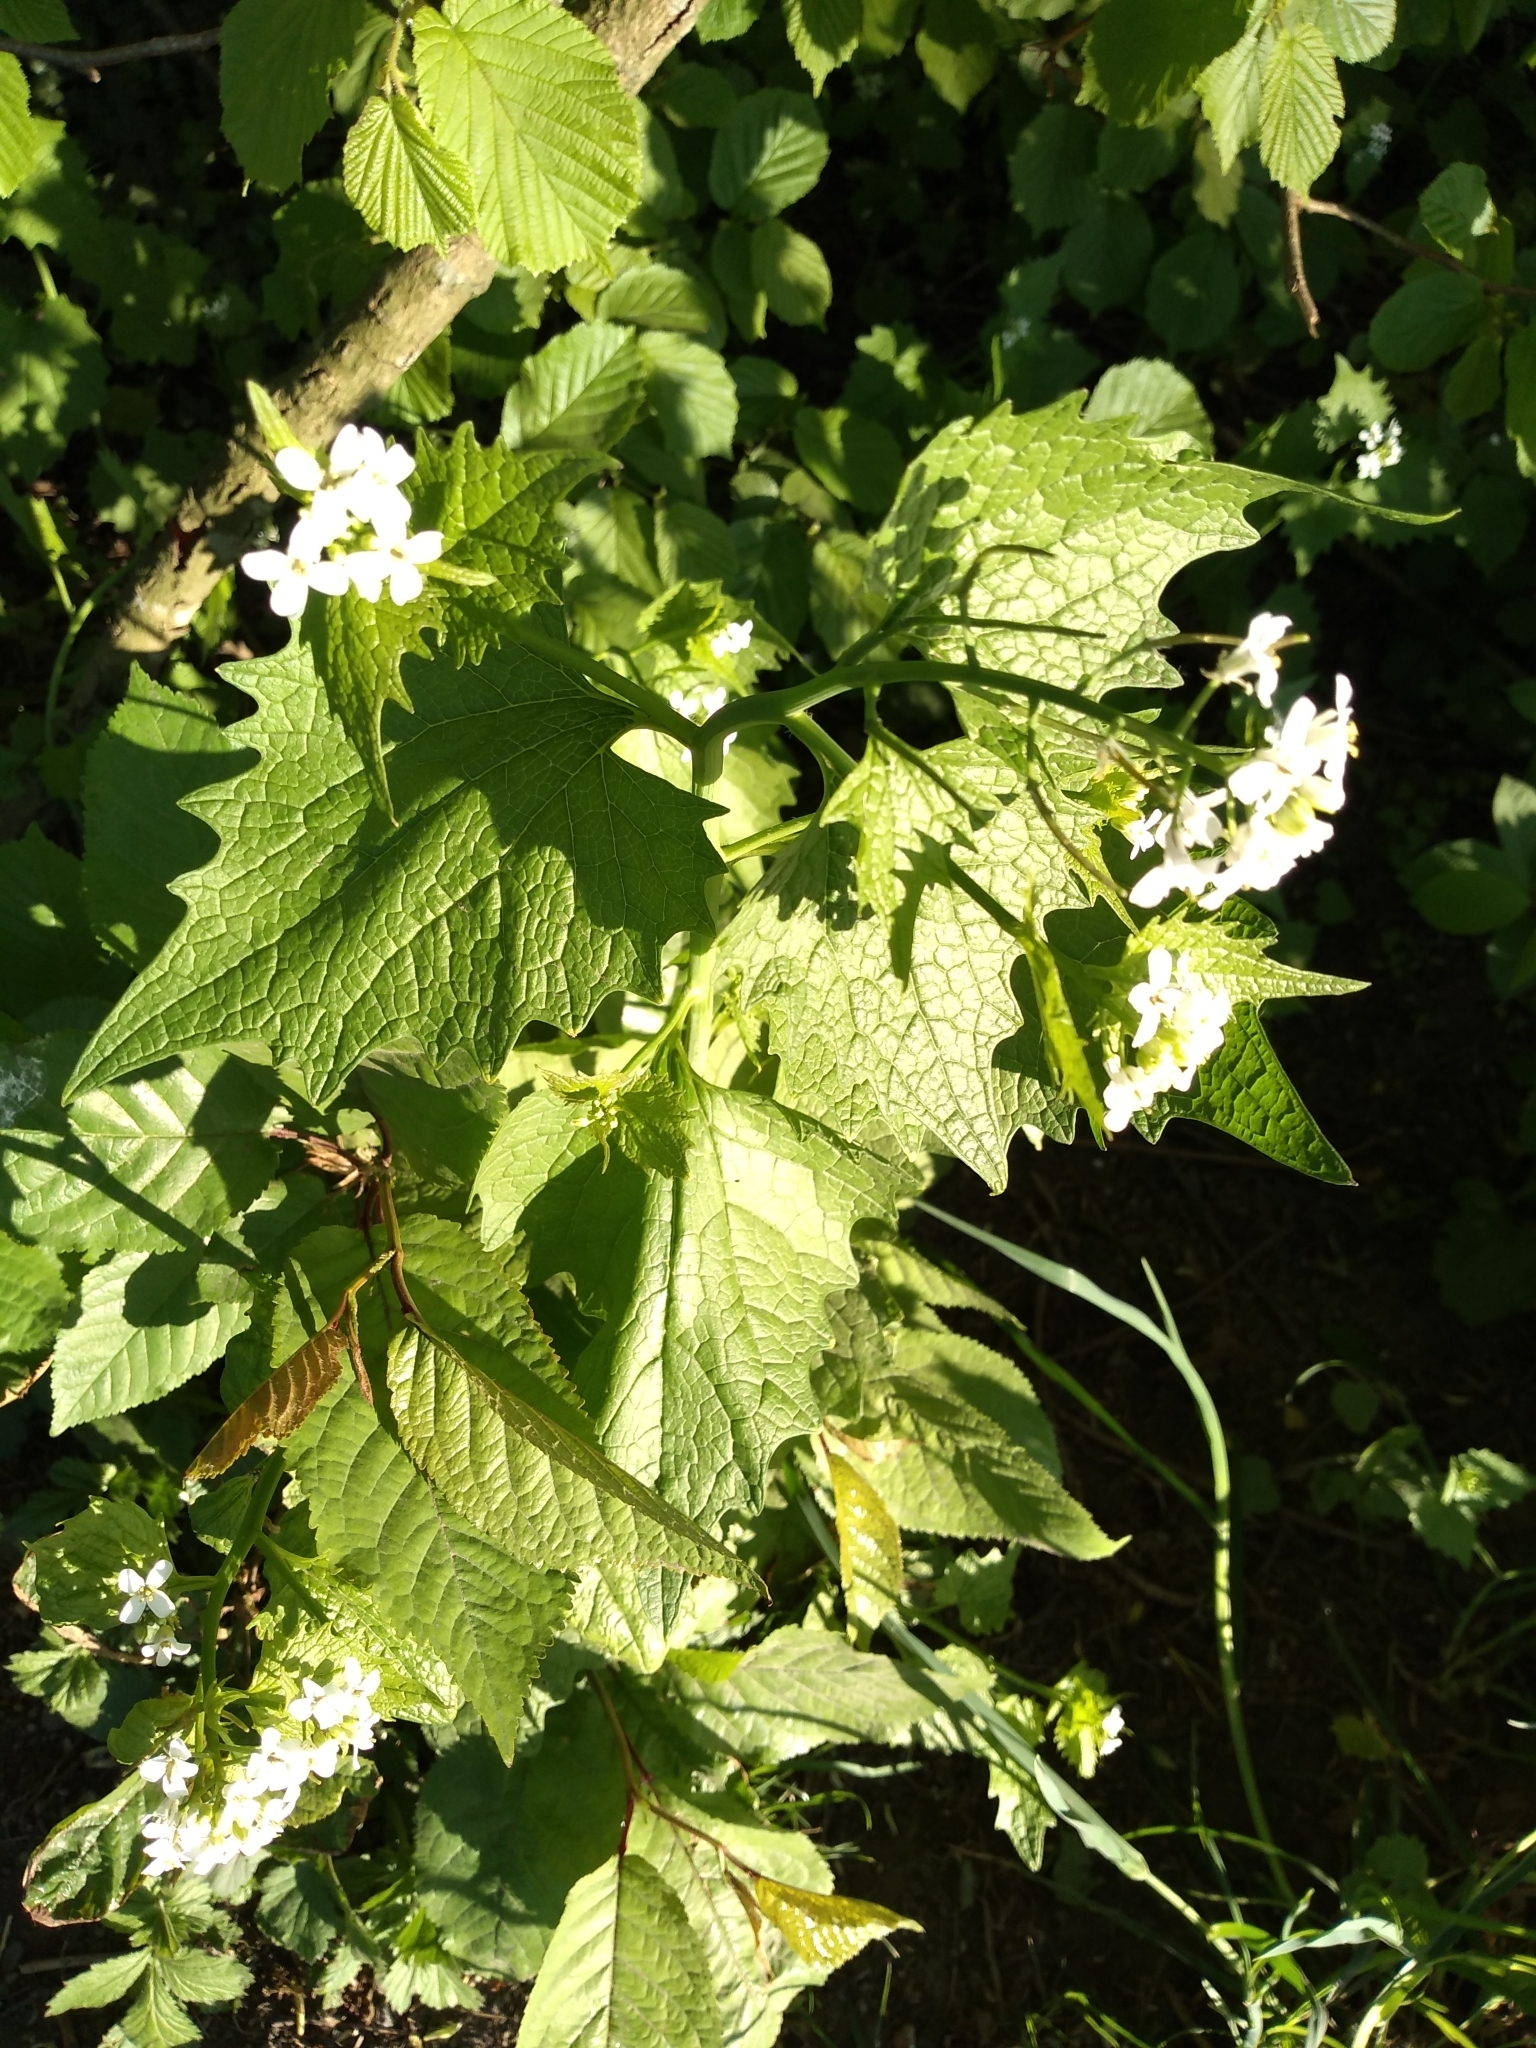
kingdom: Plantae
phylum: Tracheophyta
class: Magnoliopsida
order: Brassicales
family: Brassicaceae
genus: Alliaria
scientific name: Alliaria petiolata
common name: Garlic mustard
